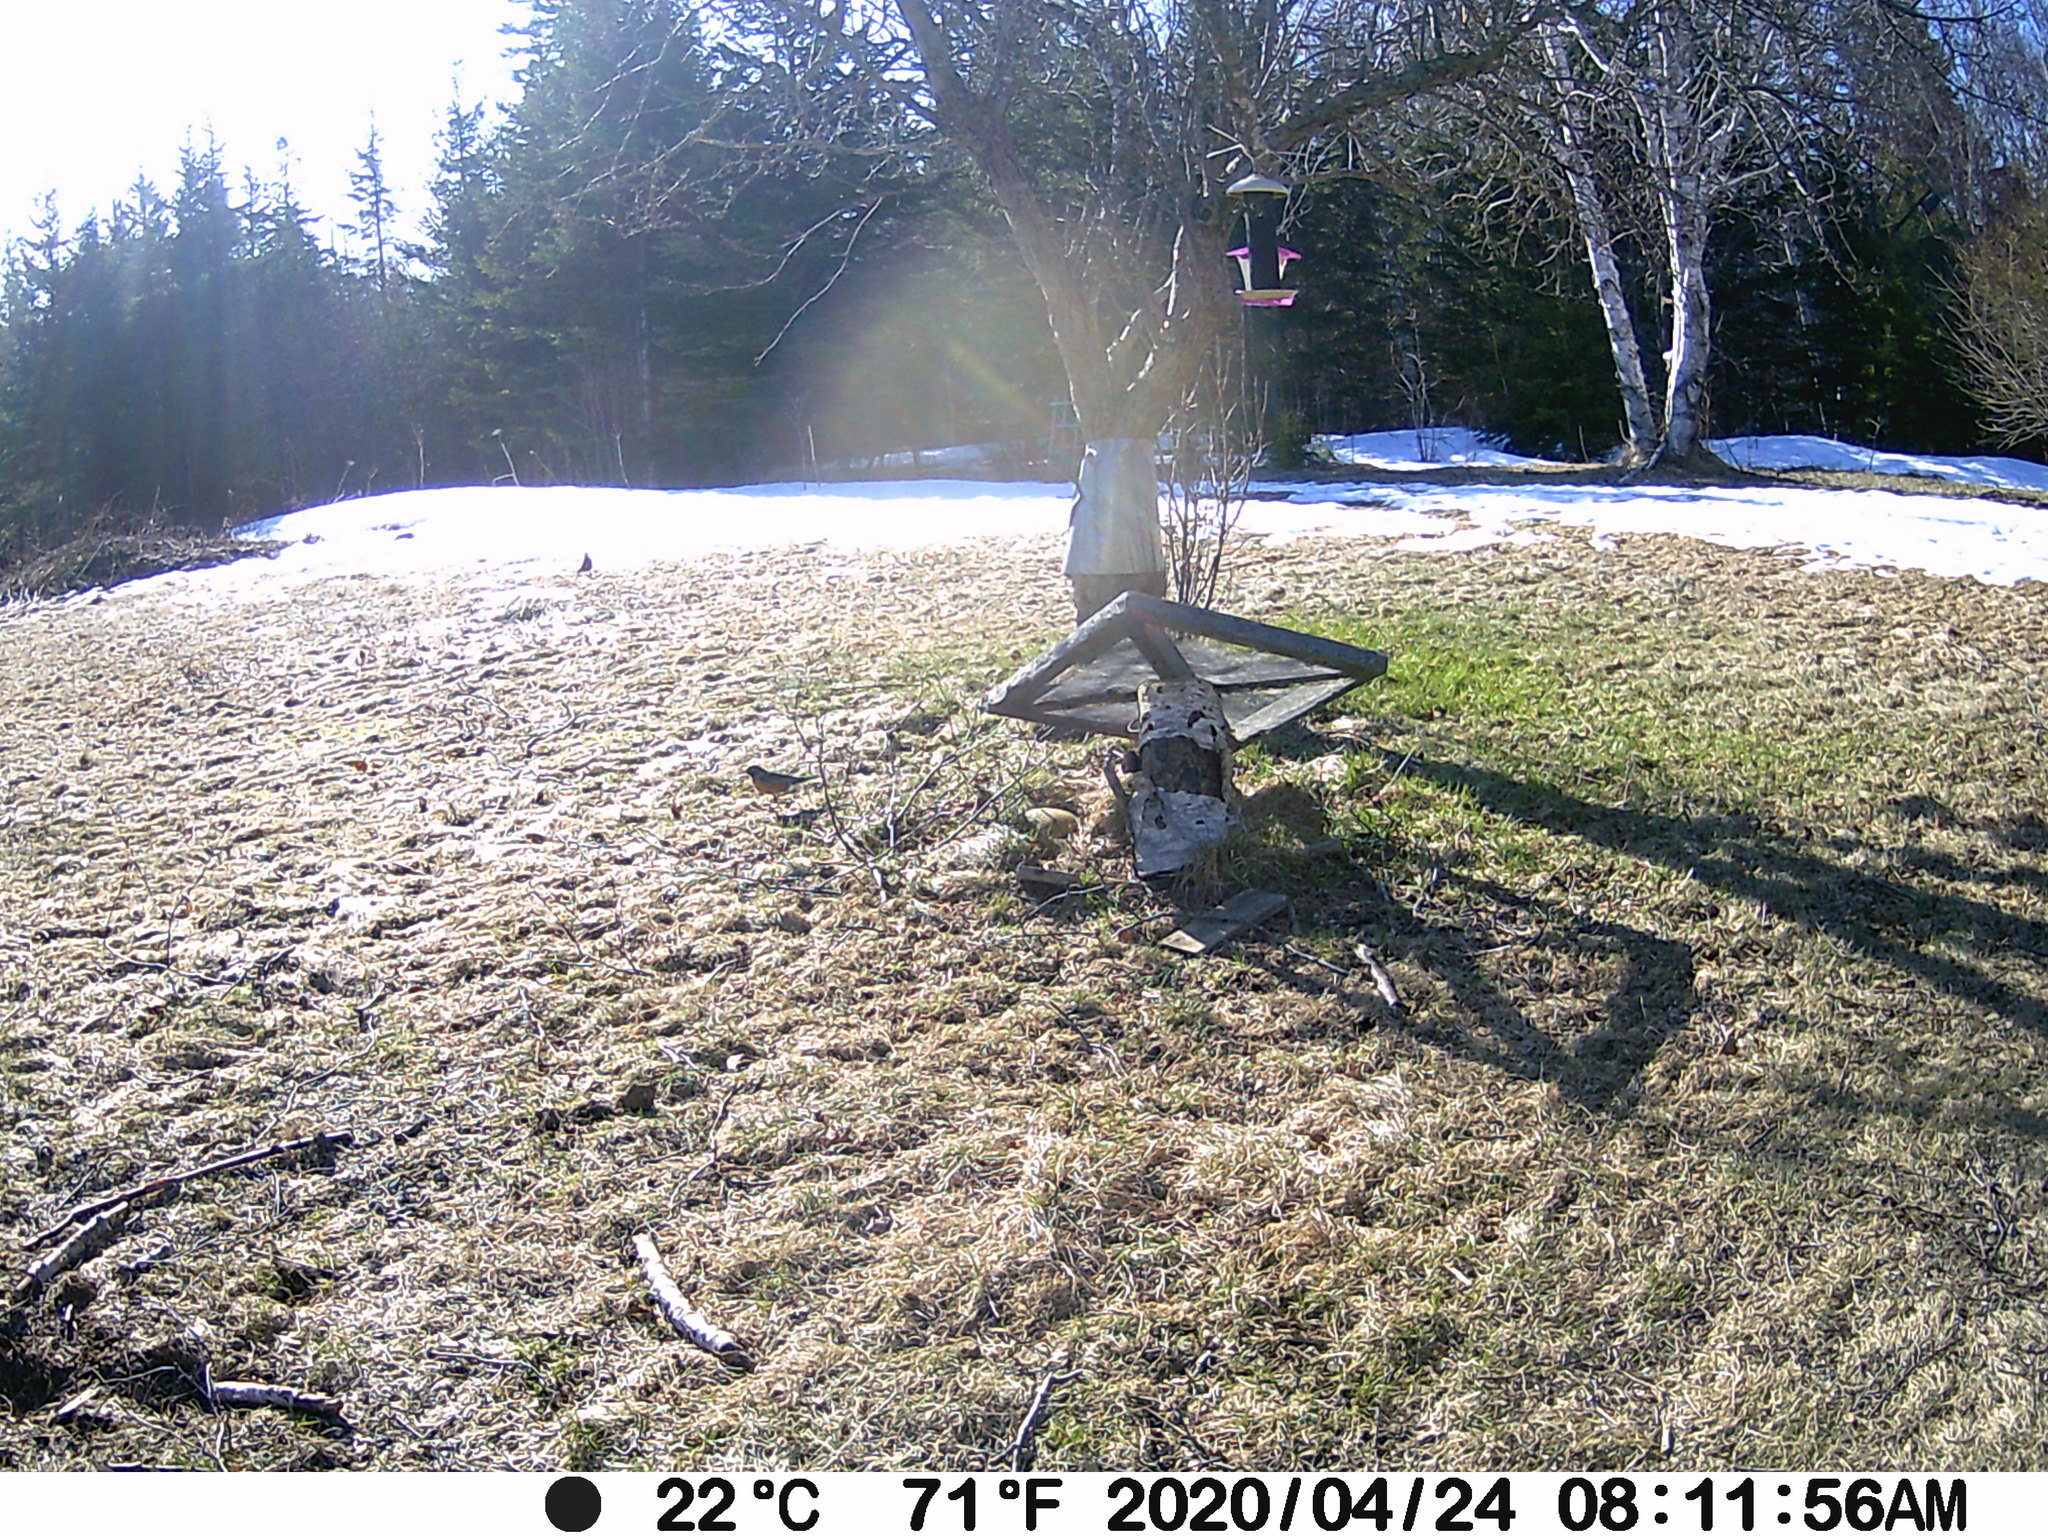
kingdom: Animalia
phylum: Chordata
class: Aves
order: Passeriformes
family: Turdidae
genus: Turdus
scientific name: Turdus migratorius
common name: American robin
